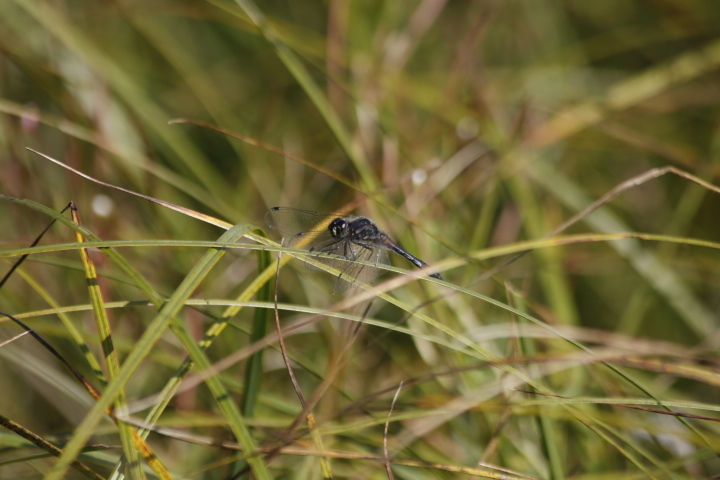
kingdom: Animalia
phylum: Arthropoda
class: Insecta
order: Odonata
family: Libellulidae
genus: Sympetrum
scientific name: Sympetrum danae
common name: Black darter
